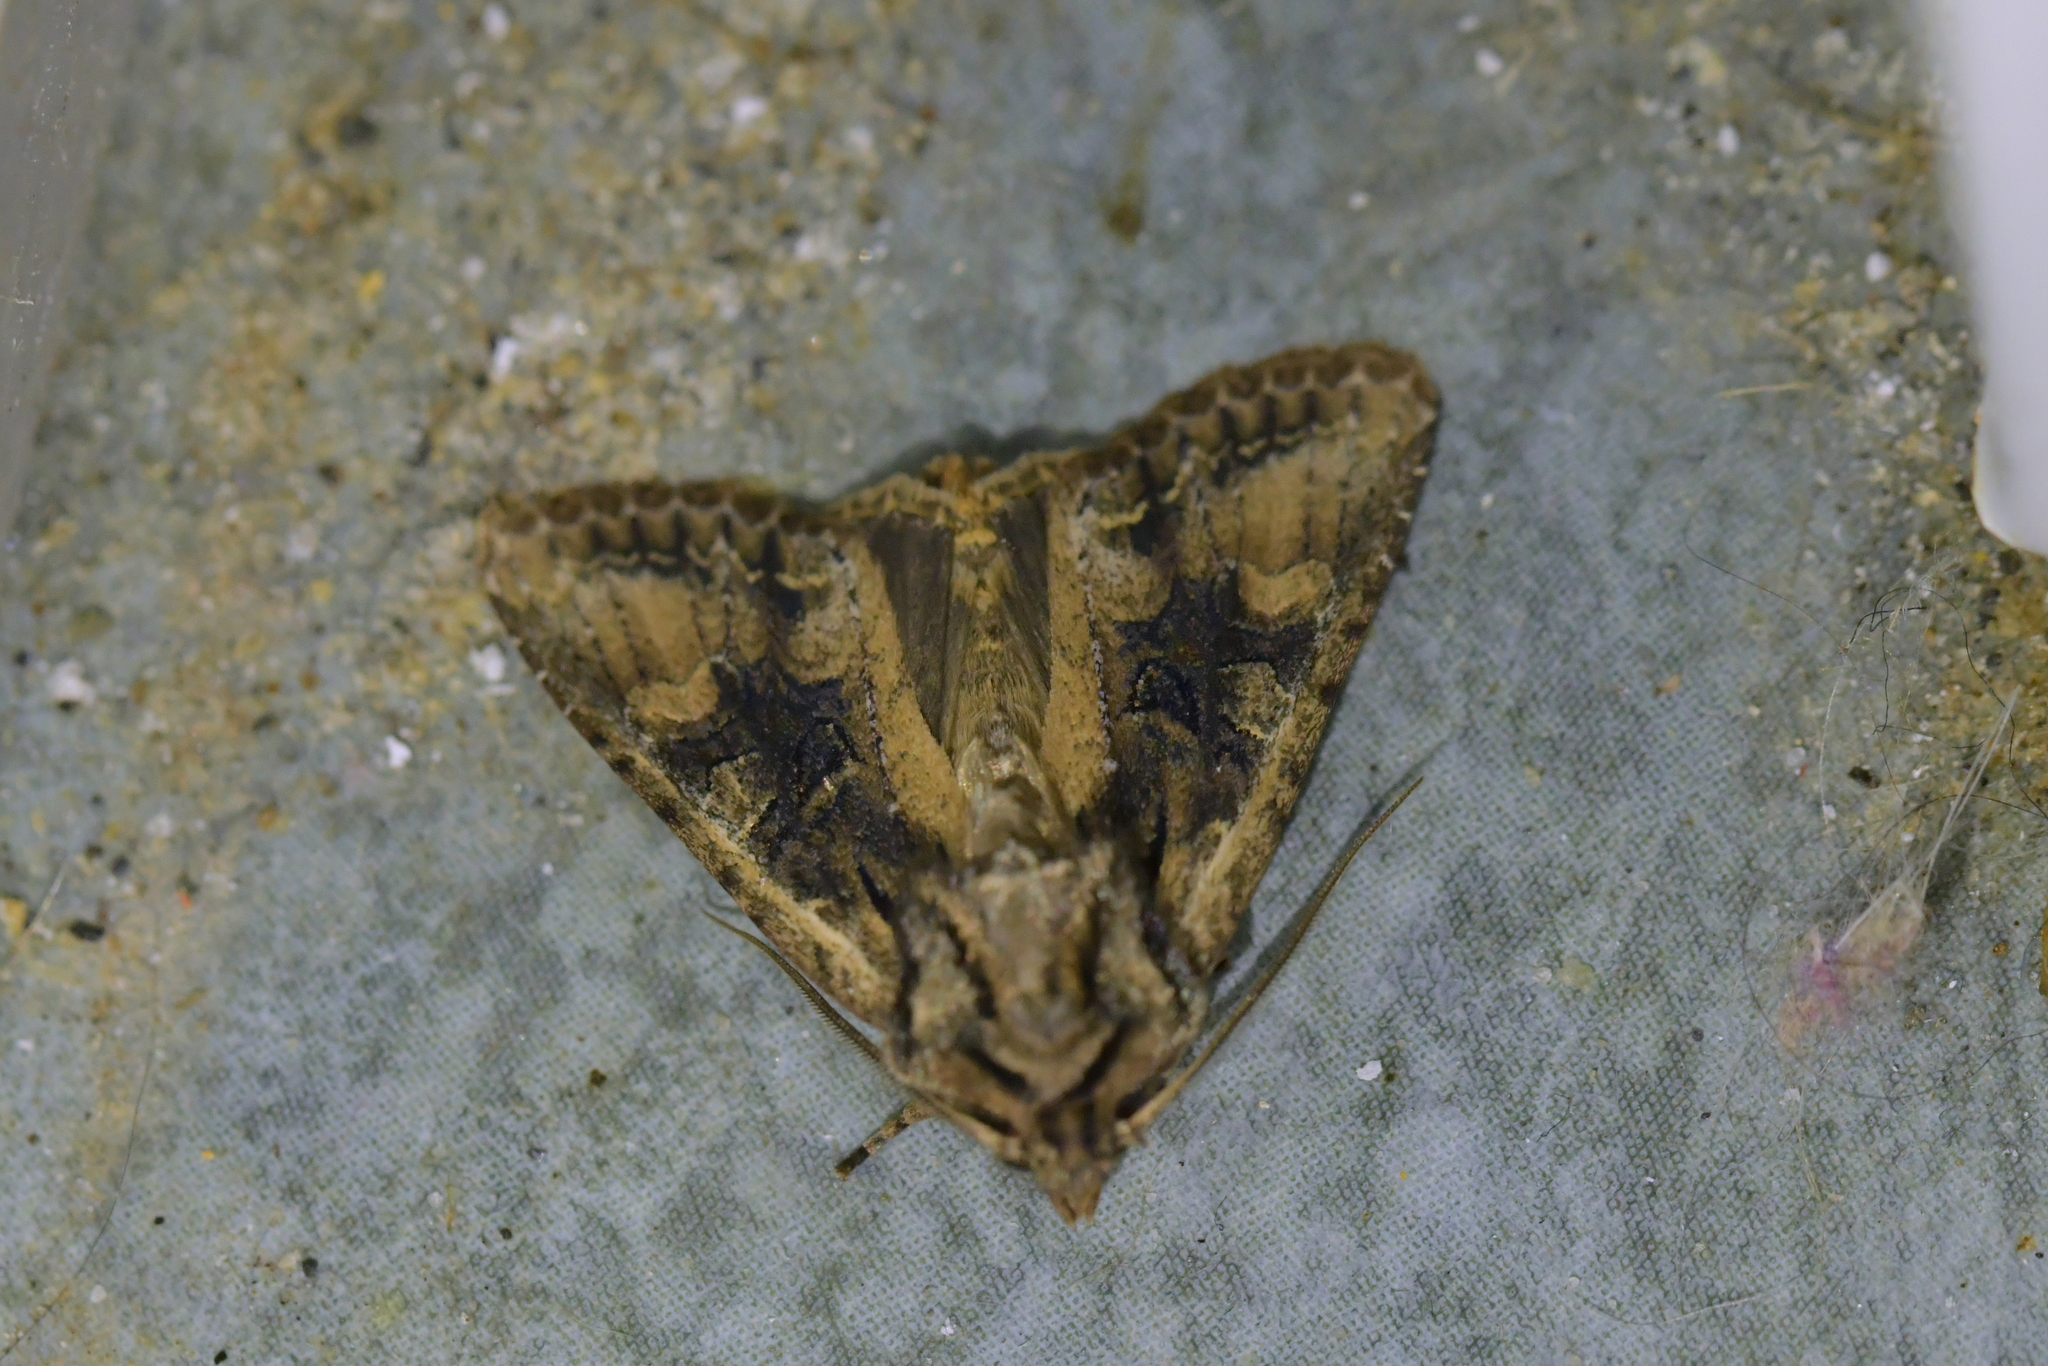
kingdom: Animalia
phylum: Arthropoda
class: Insecta
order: Lepidoptera
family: Noctuidae
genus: Ichneutica
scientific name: Ichneutica mutans
